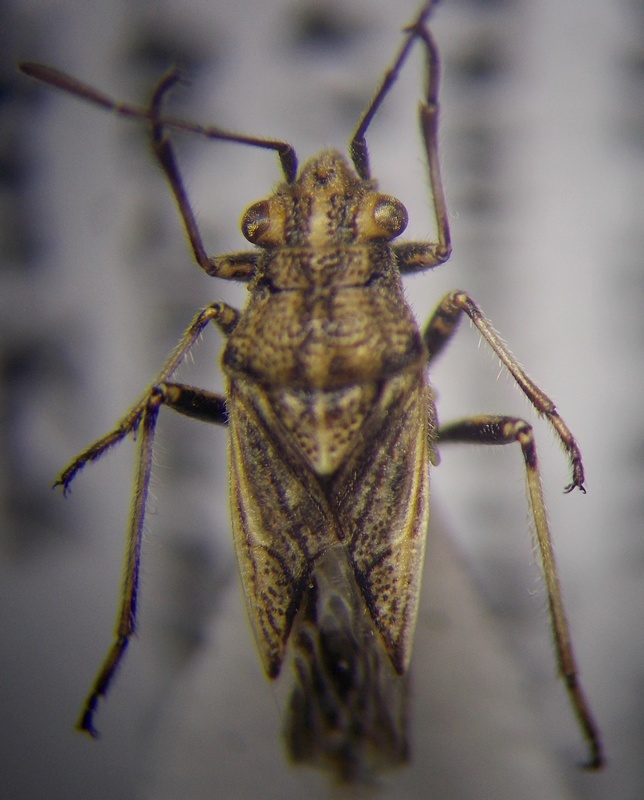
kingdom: Animalia
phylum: Arthropoda
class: Insecta
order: Hemiptera
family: Lygaeidae
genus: Ortholomus
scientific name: Ortholomus punctipennis
